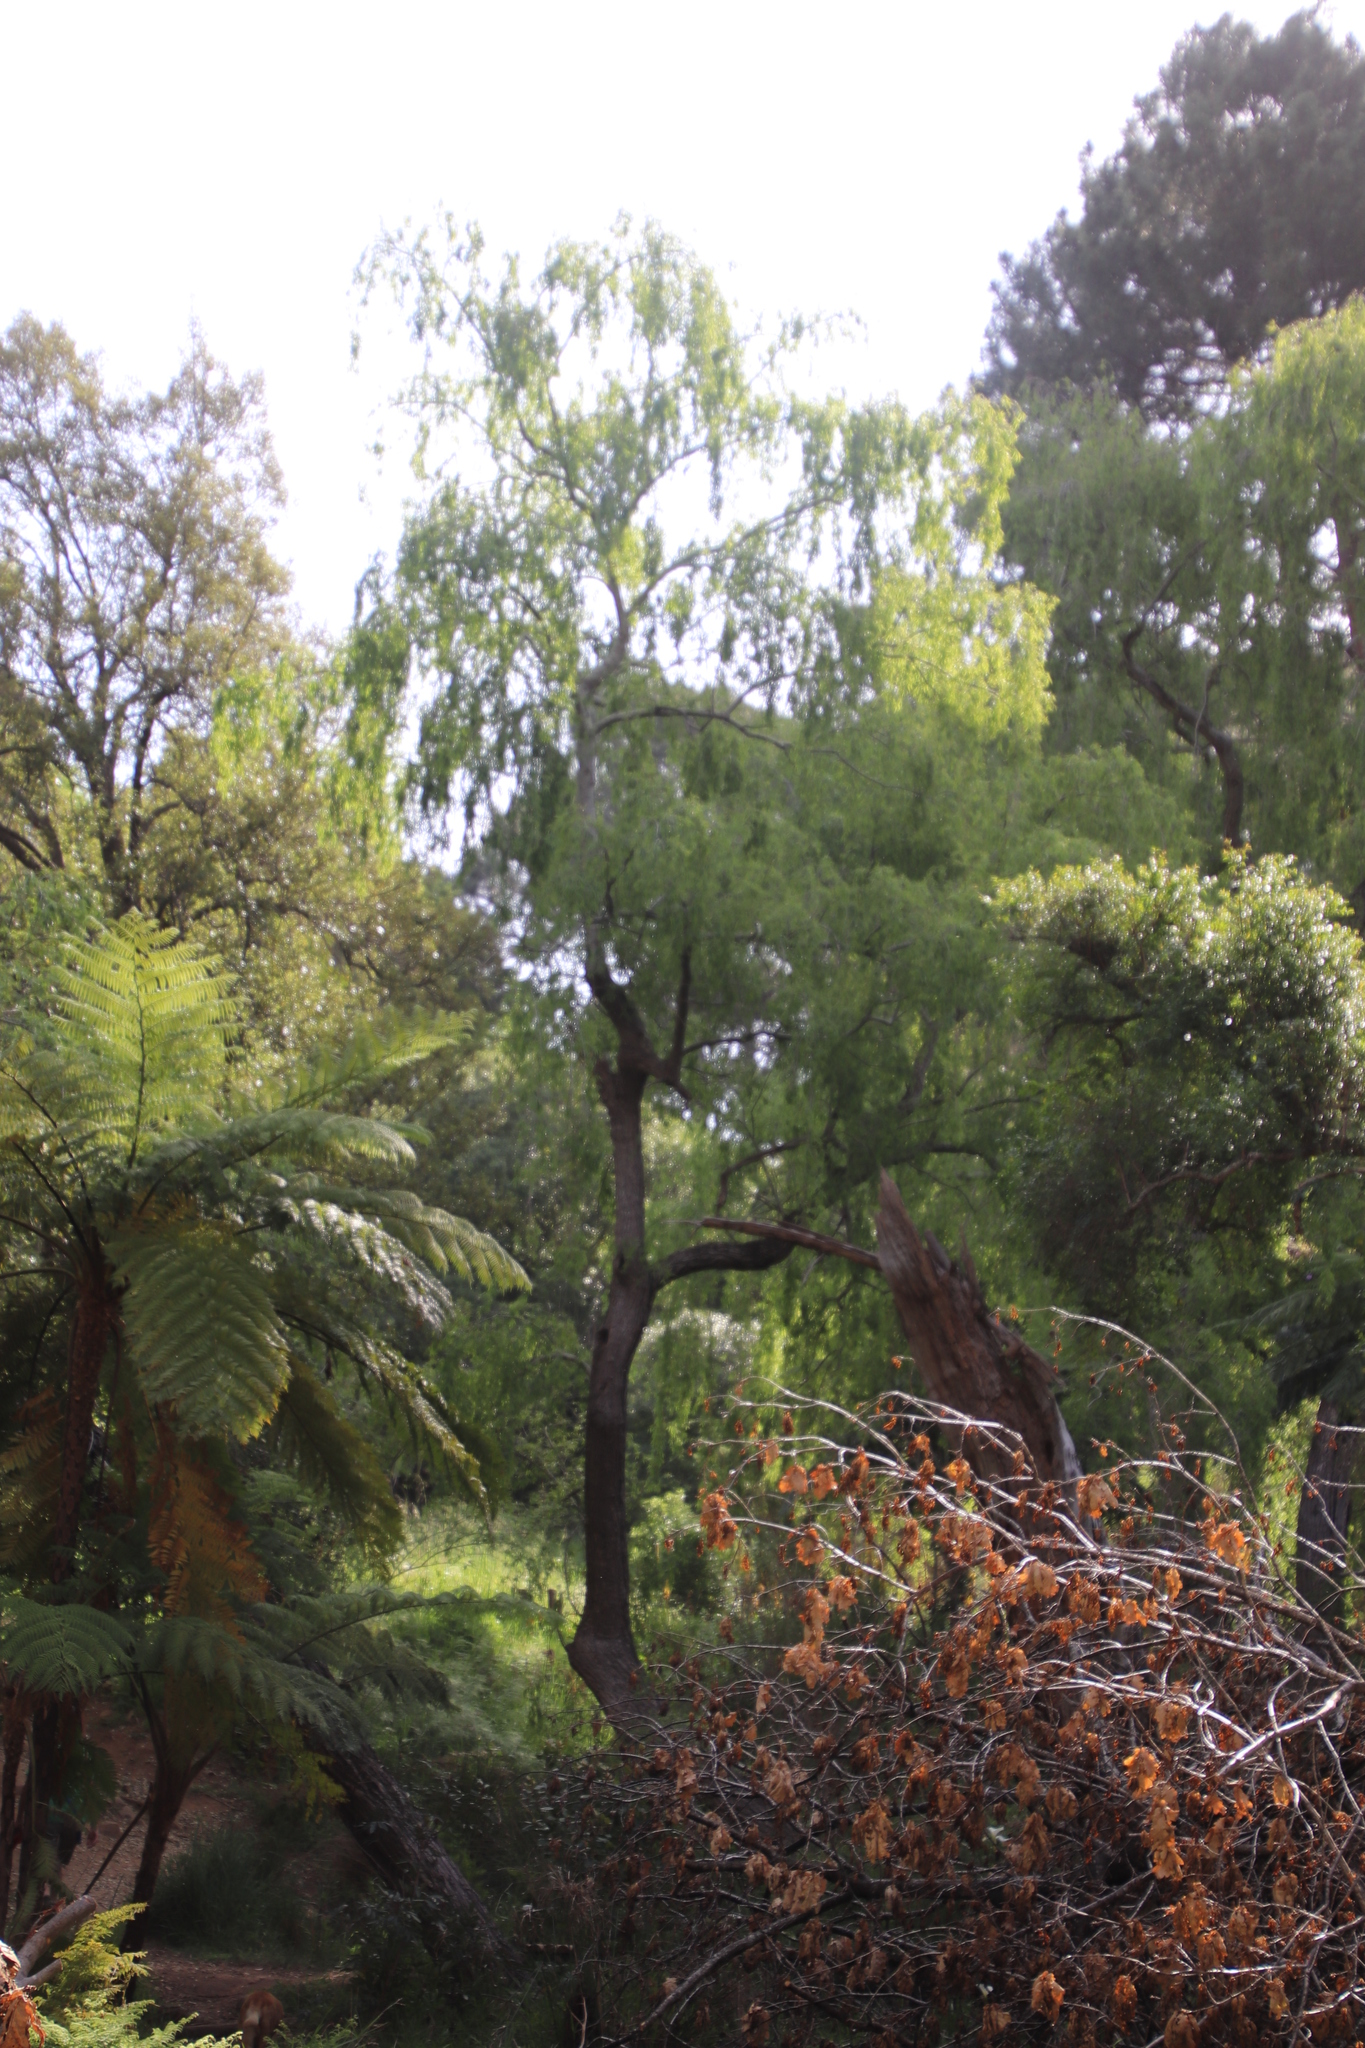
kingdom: Plantae
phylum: Tracheophyta
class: Magnoliopsida
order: Malpighiales
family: Salicaceae
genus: Salix
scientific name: Salix babylonica
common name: Weeping willow
